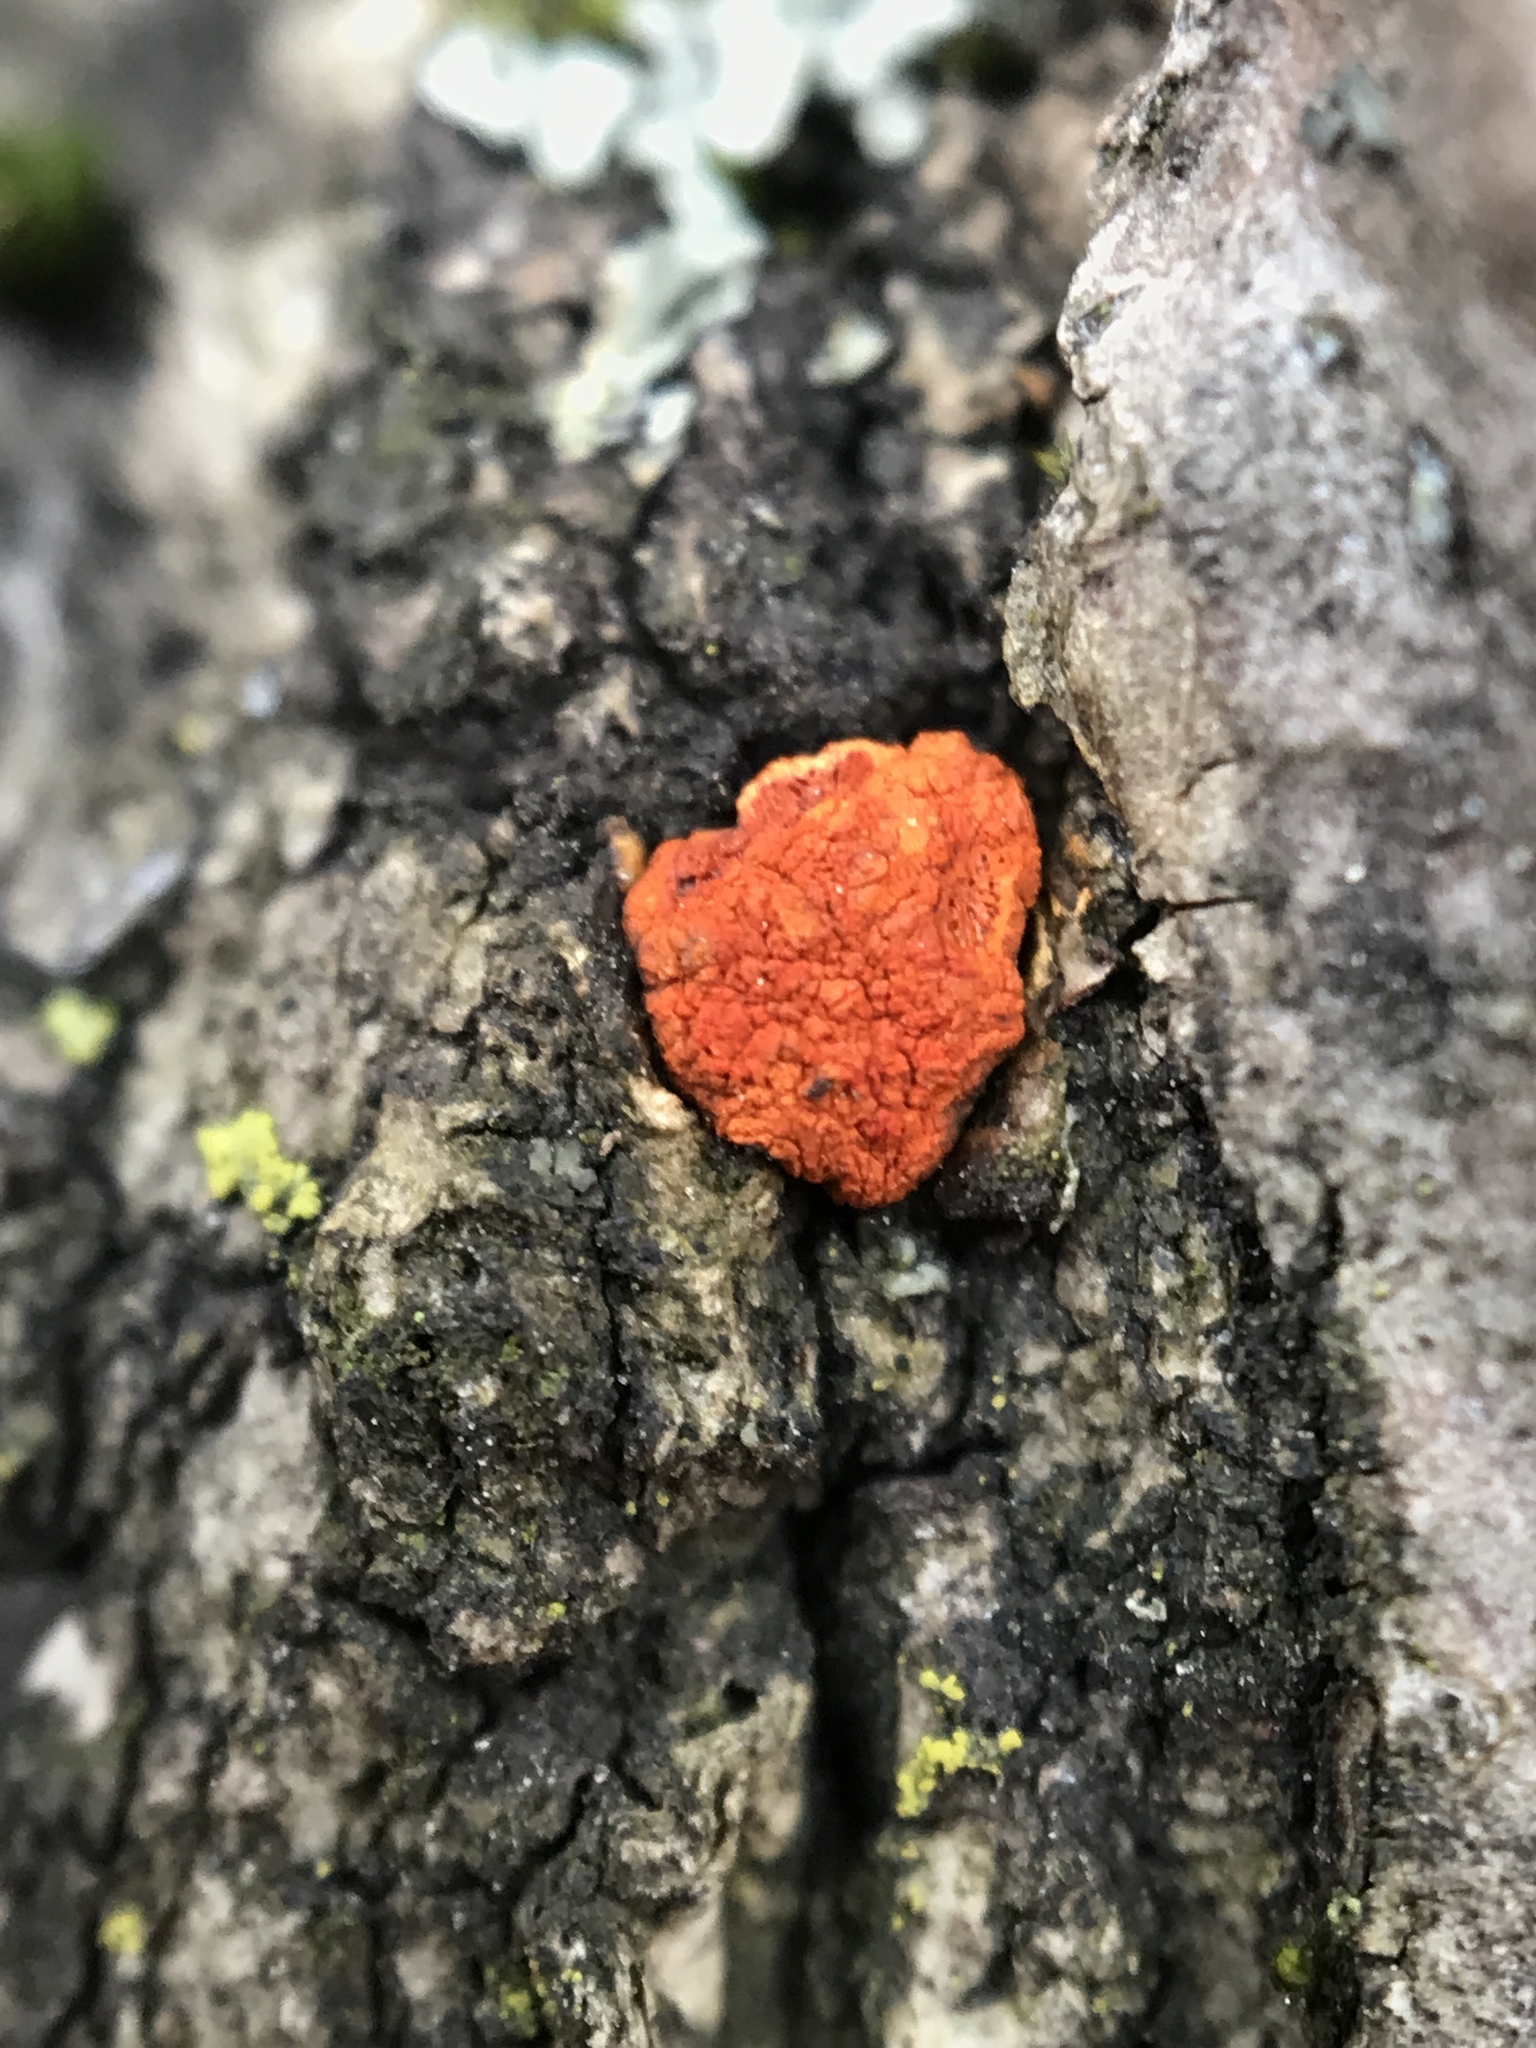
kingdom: Fungi
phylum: Ascomycota
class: Sordariomycetes
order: Diaporthales
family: Cryphonectriaceae
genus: Amphilogia
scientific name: Amphilogia gyrosa
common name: Orange hobnail canker
